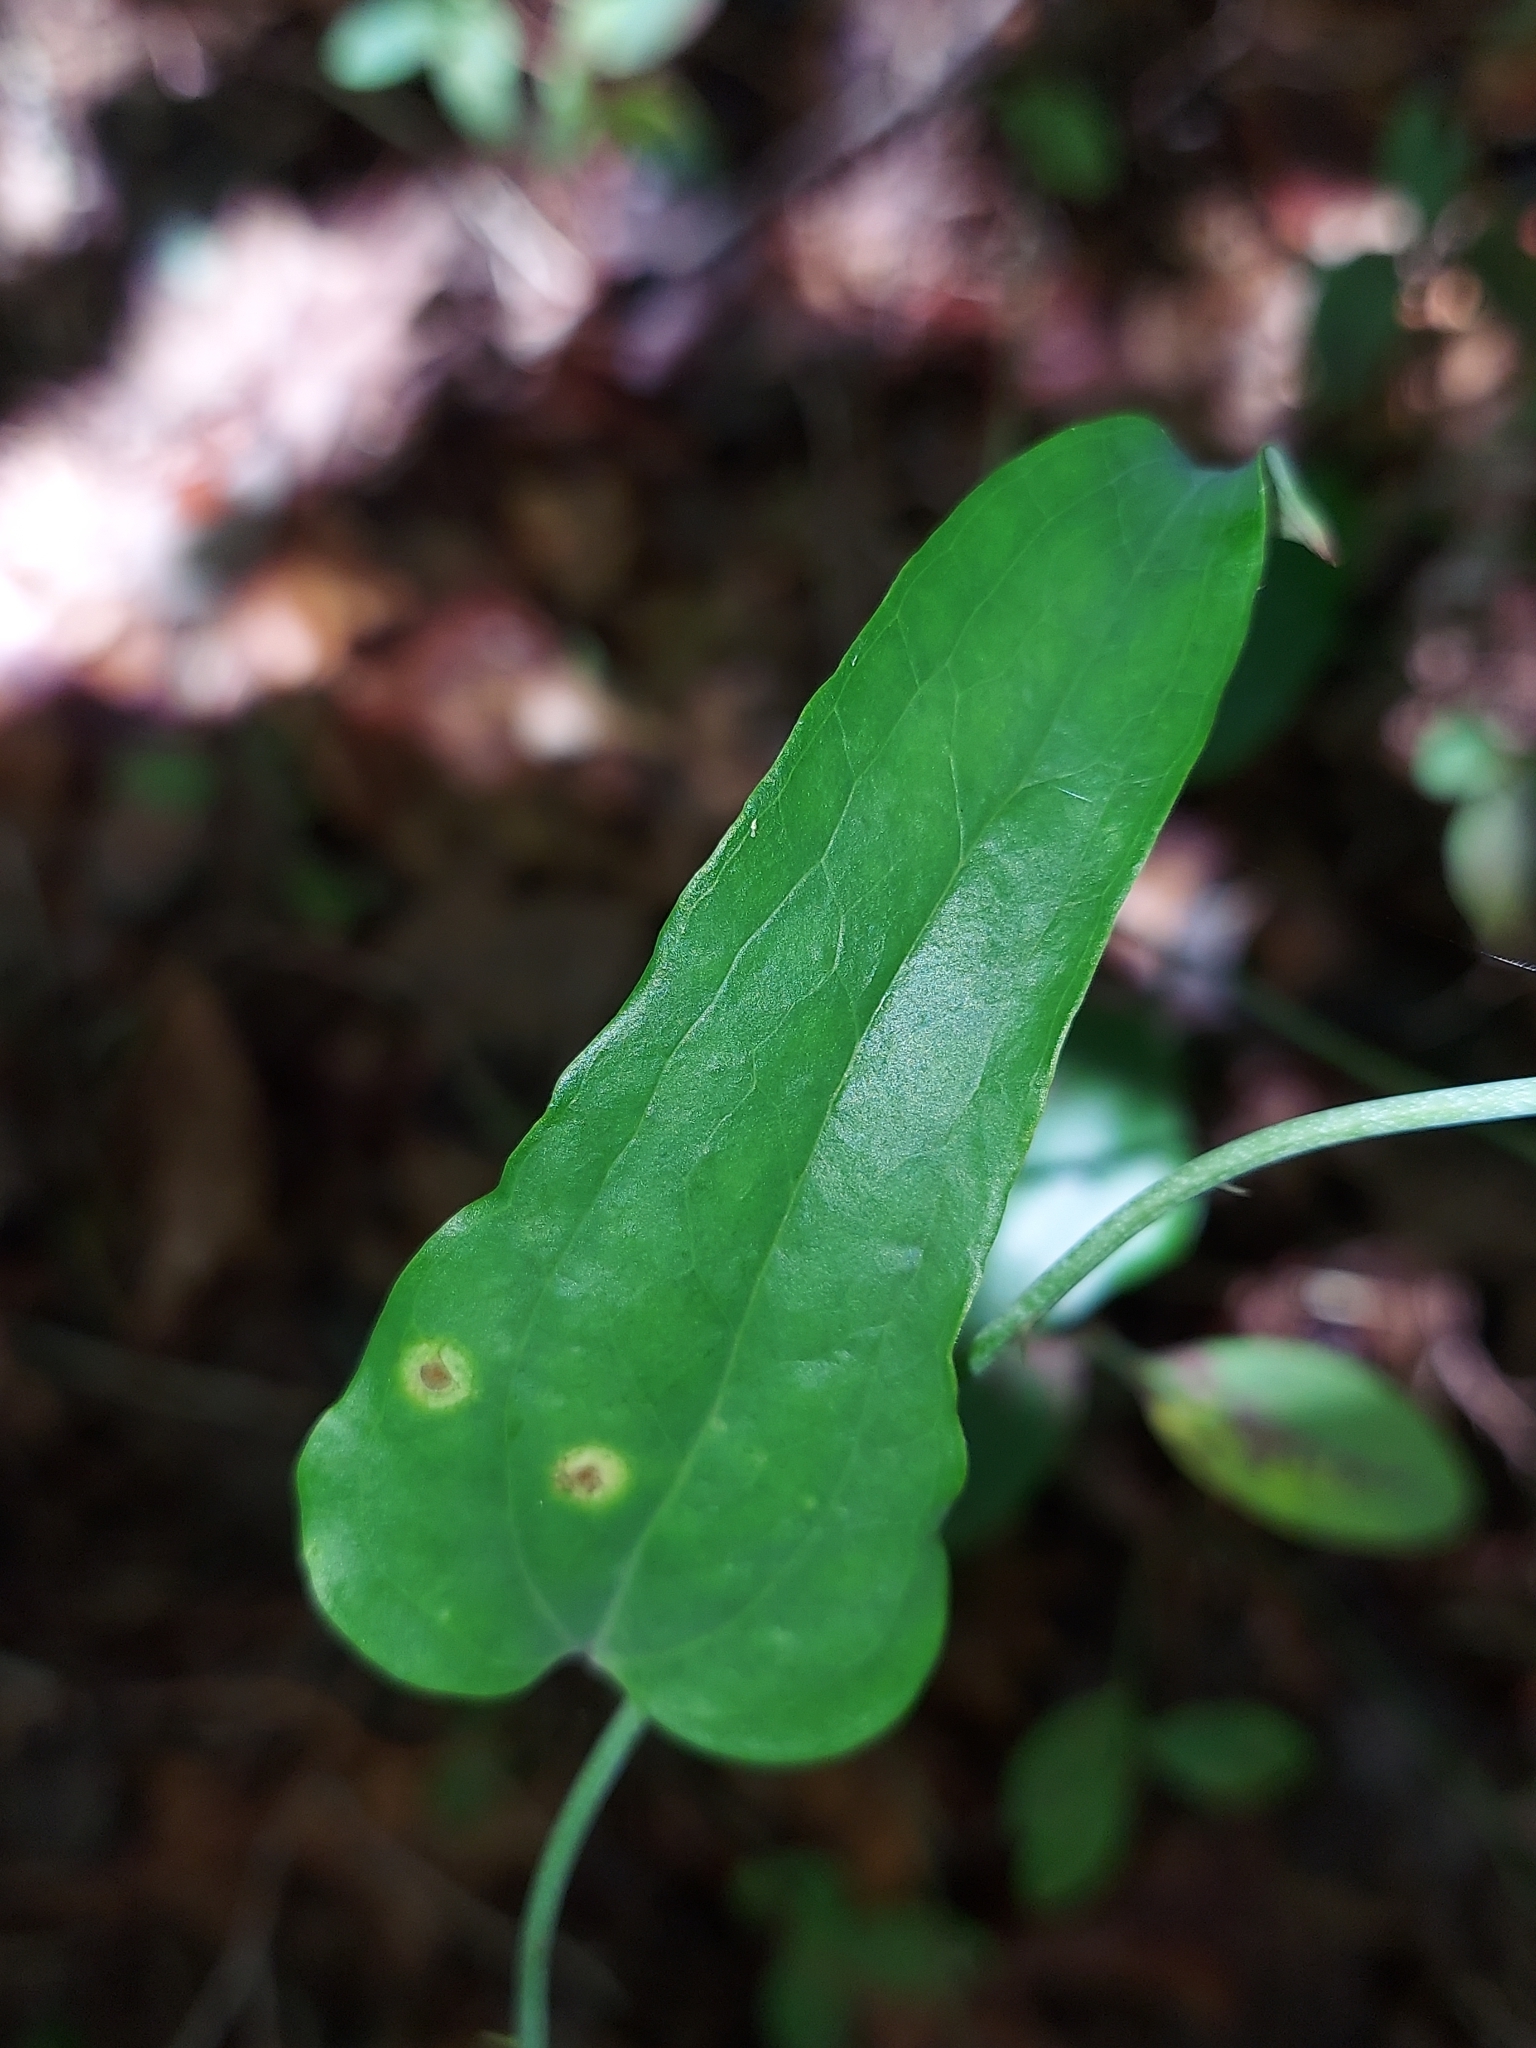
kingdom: Plantae
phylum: Tracheophyta
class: Liliopsida
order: Liliales
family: Smilacaceae
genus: Smilax
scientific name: Smilax bona-nox
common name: Catbrier
